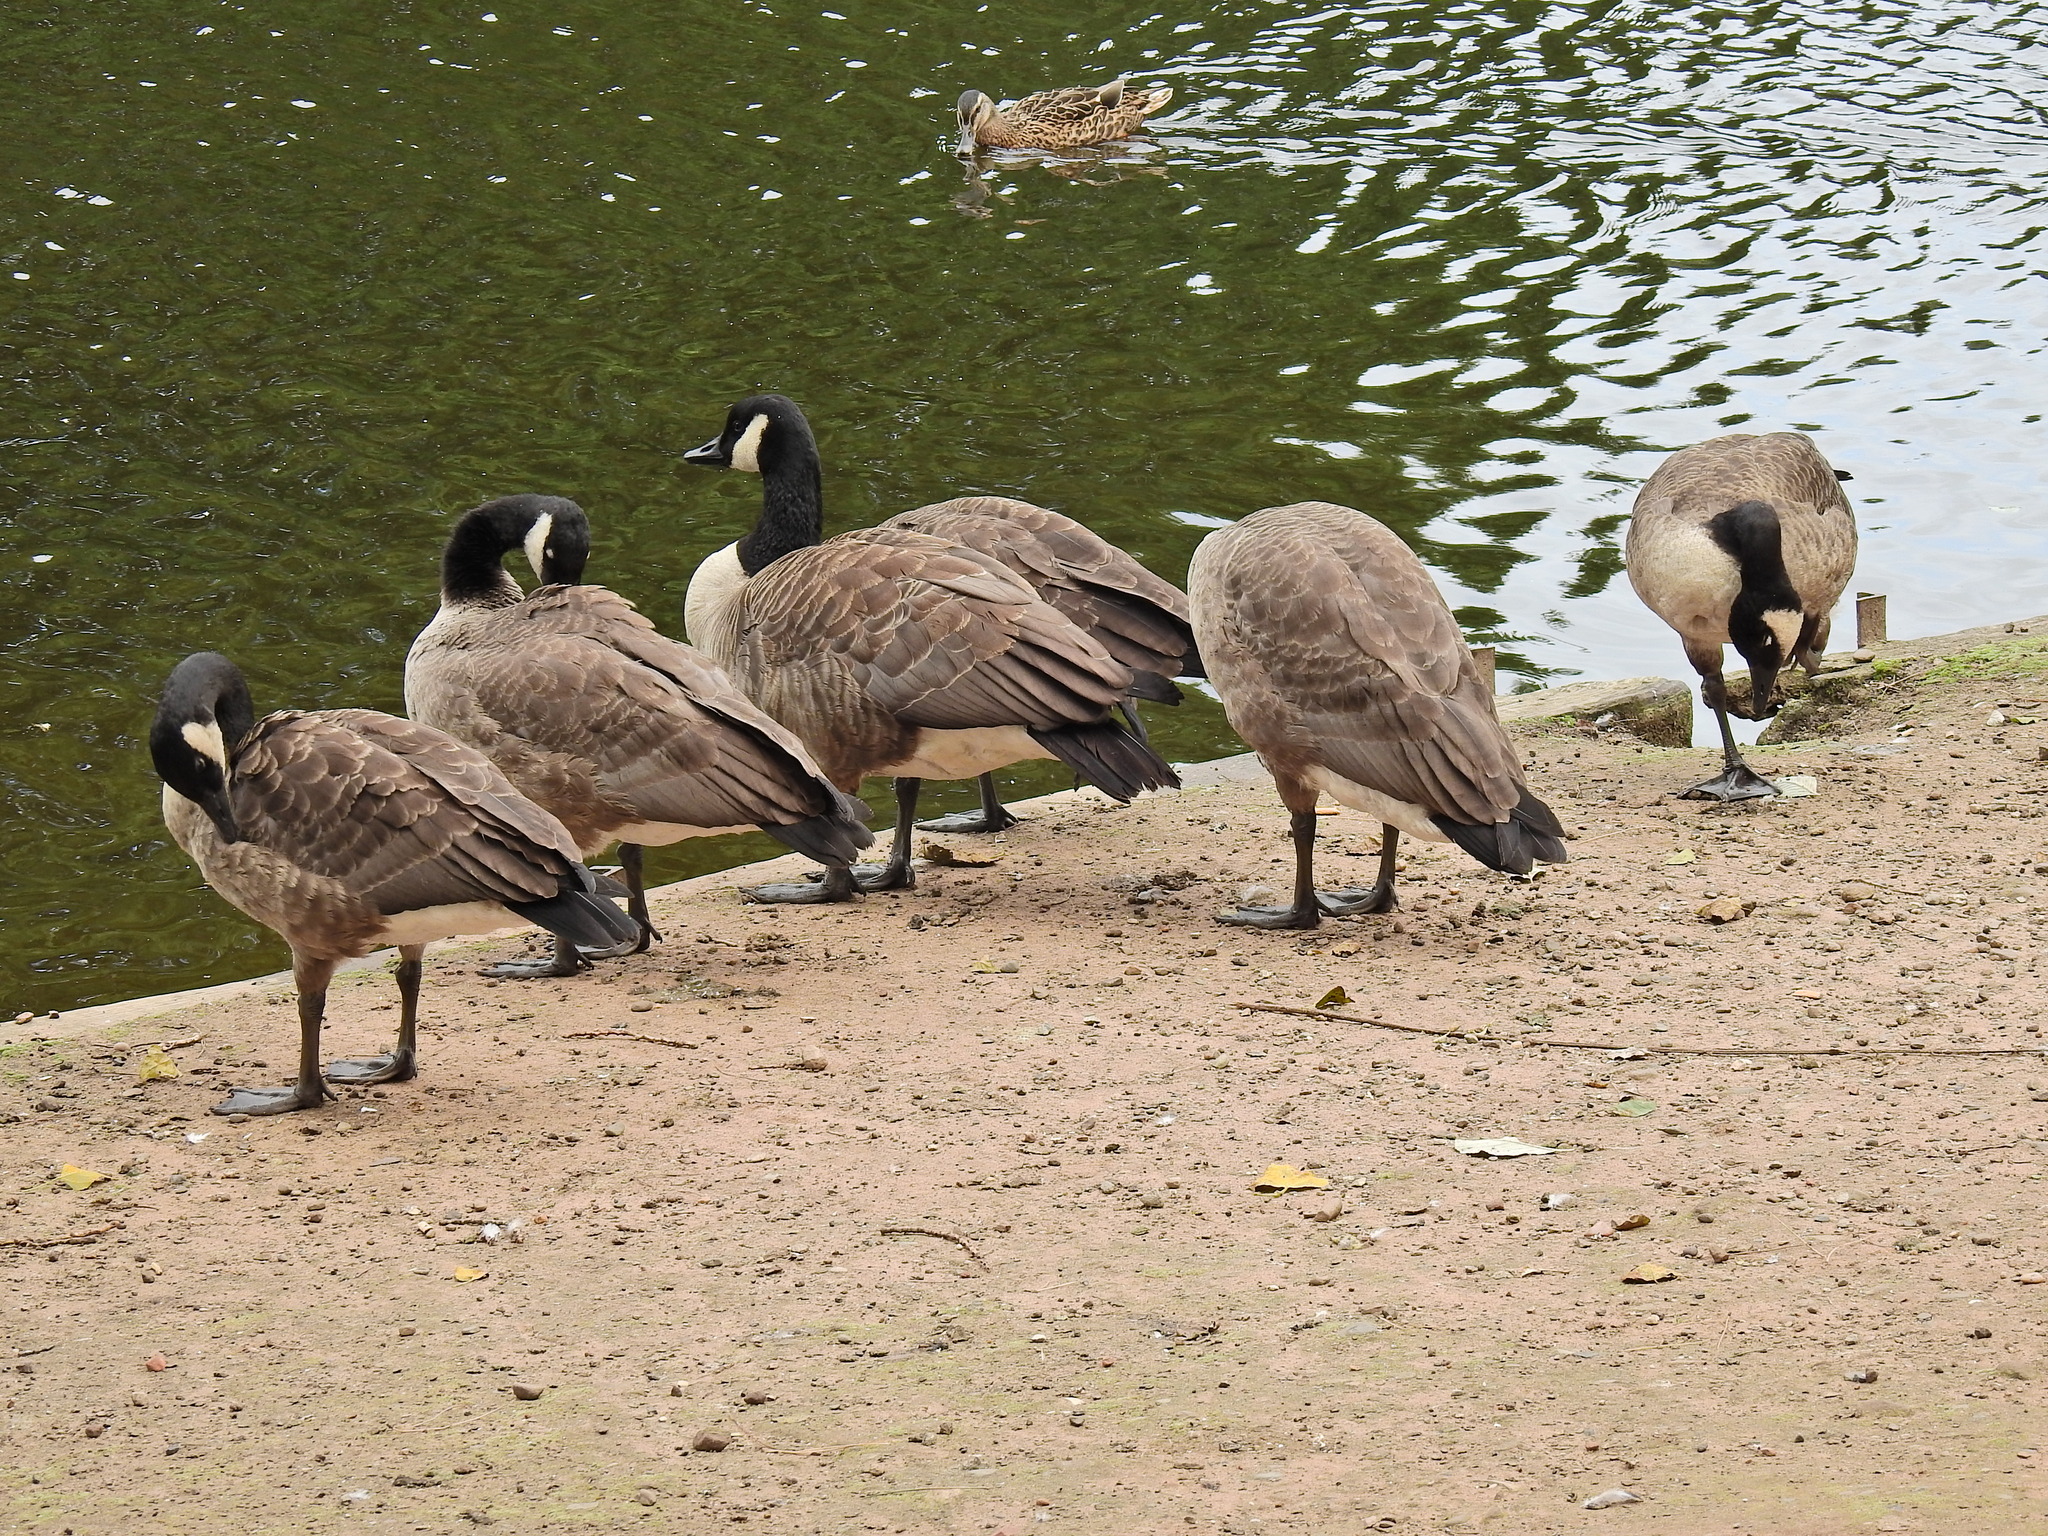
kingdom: Animalia
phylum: Chordata
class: Aves
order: Anseriformes
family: Anatidae
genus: Branta
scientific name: Branta canadensis
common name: Canada goose
